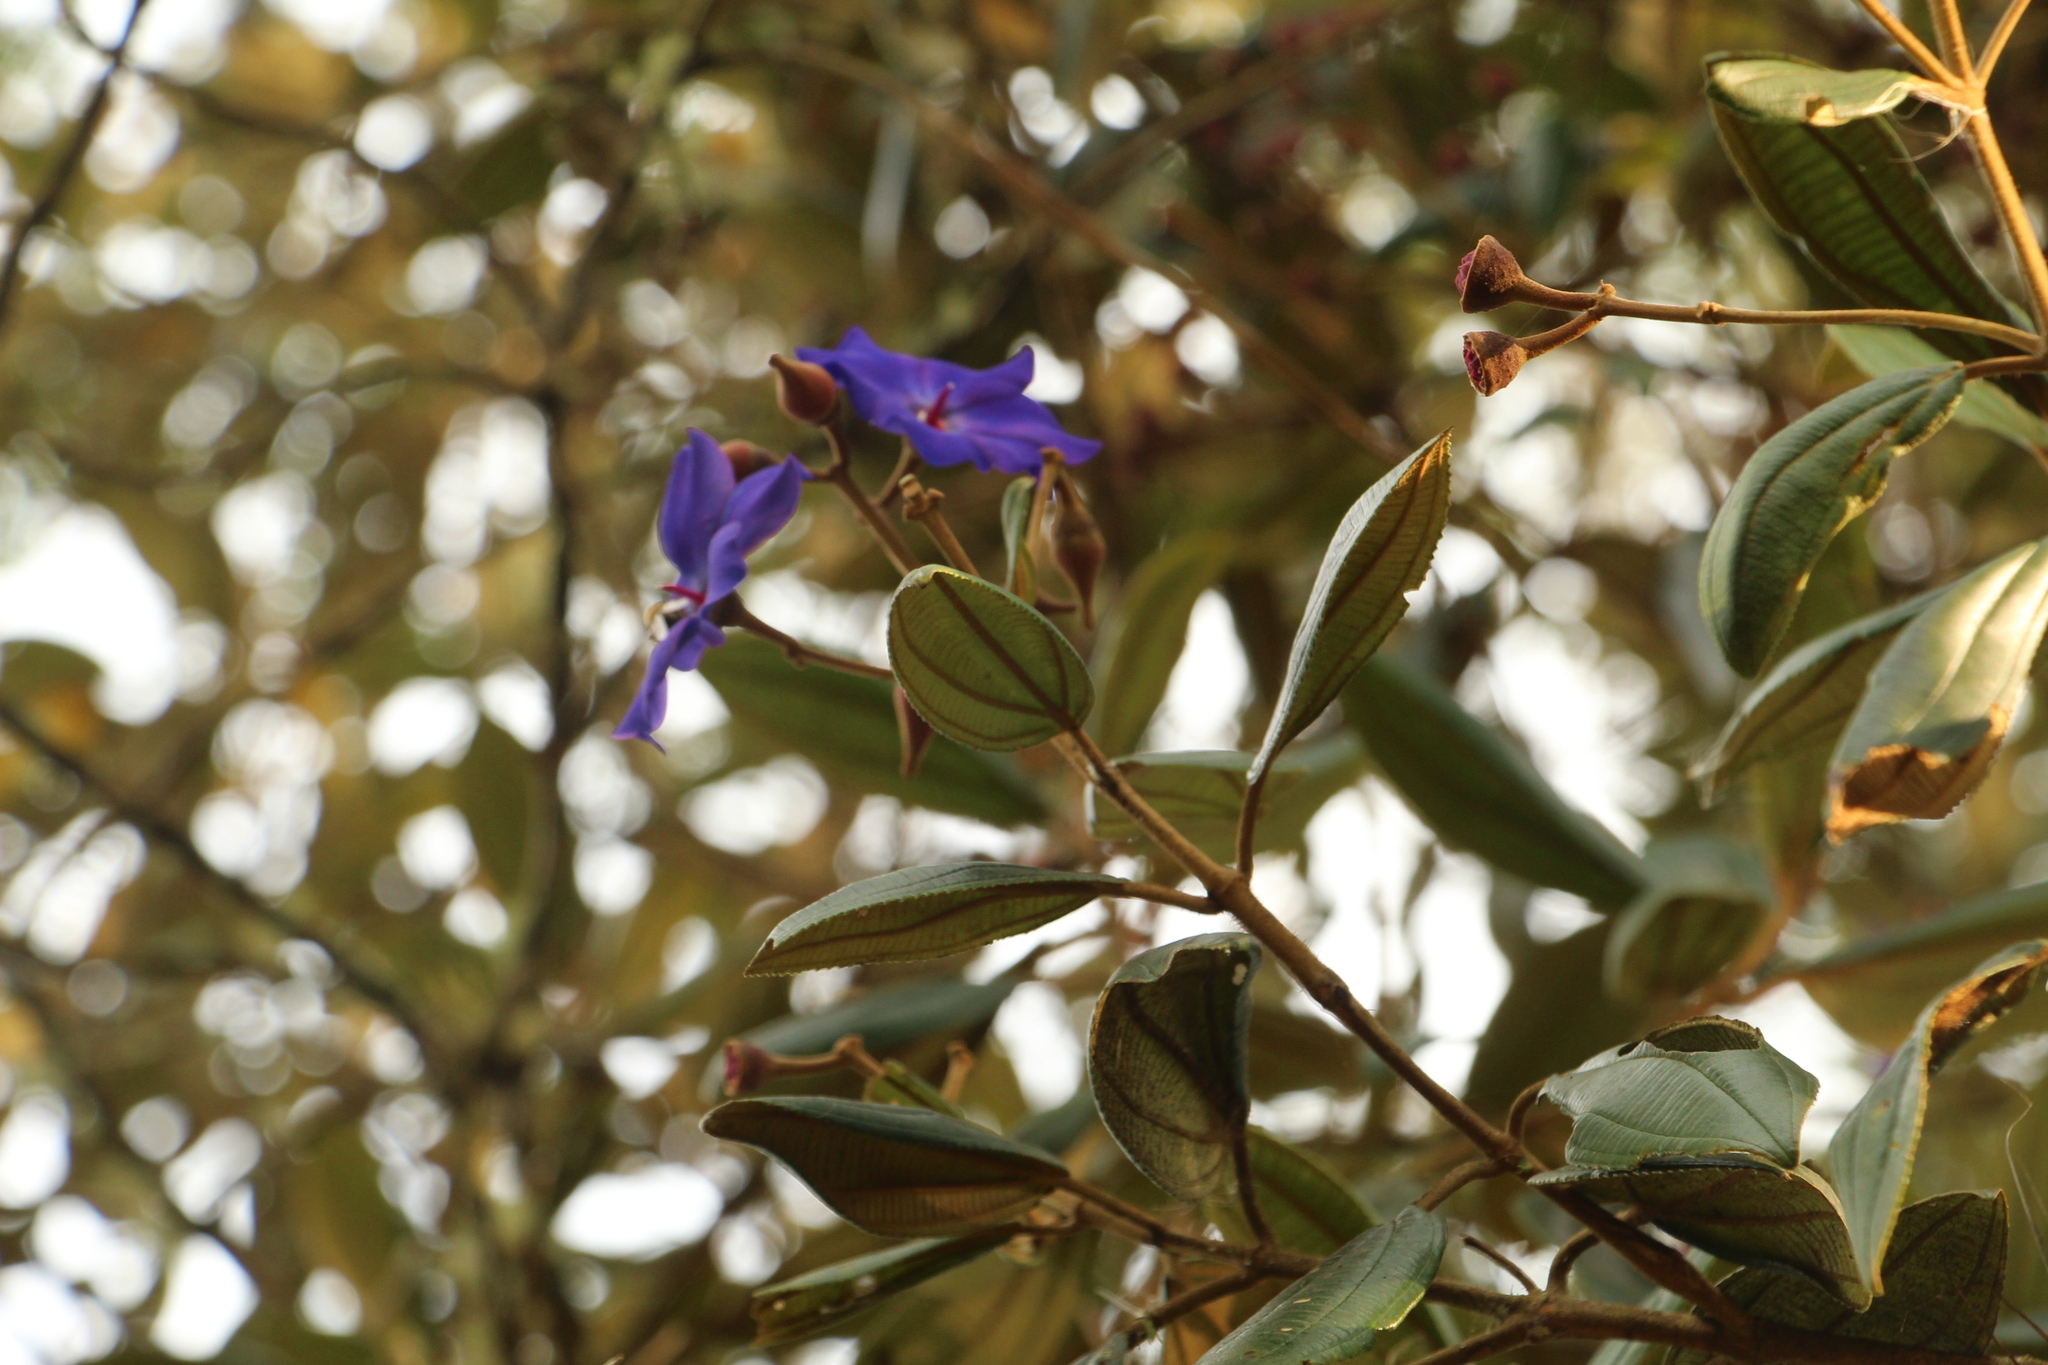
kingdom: Plantae
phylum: Tracheophyta
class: Magnoliopsida
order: Myrtales
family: Melastomataceae
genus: Meriania
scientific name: Meriania brachycera
